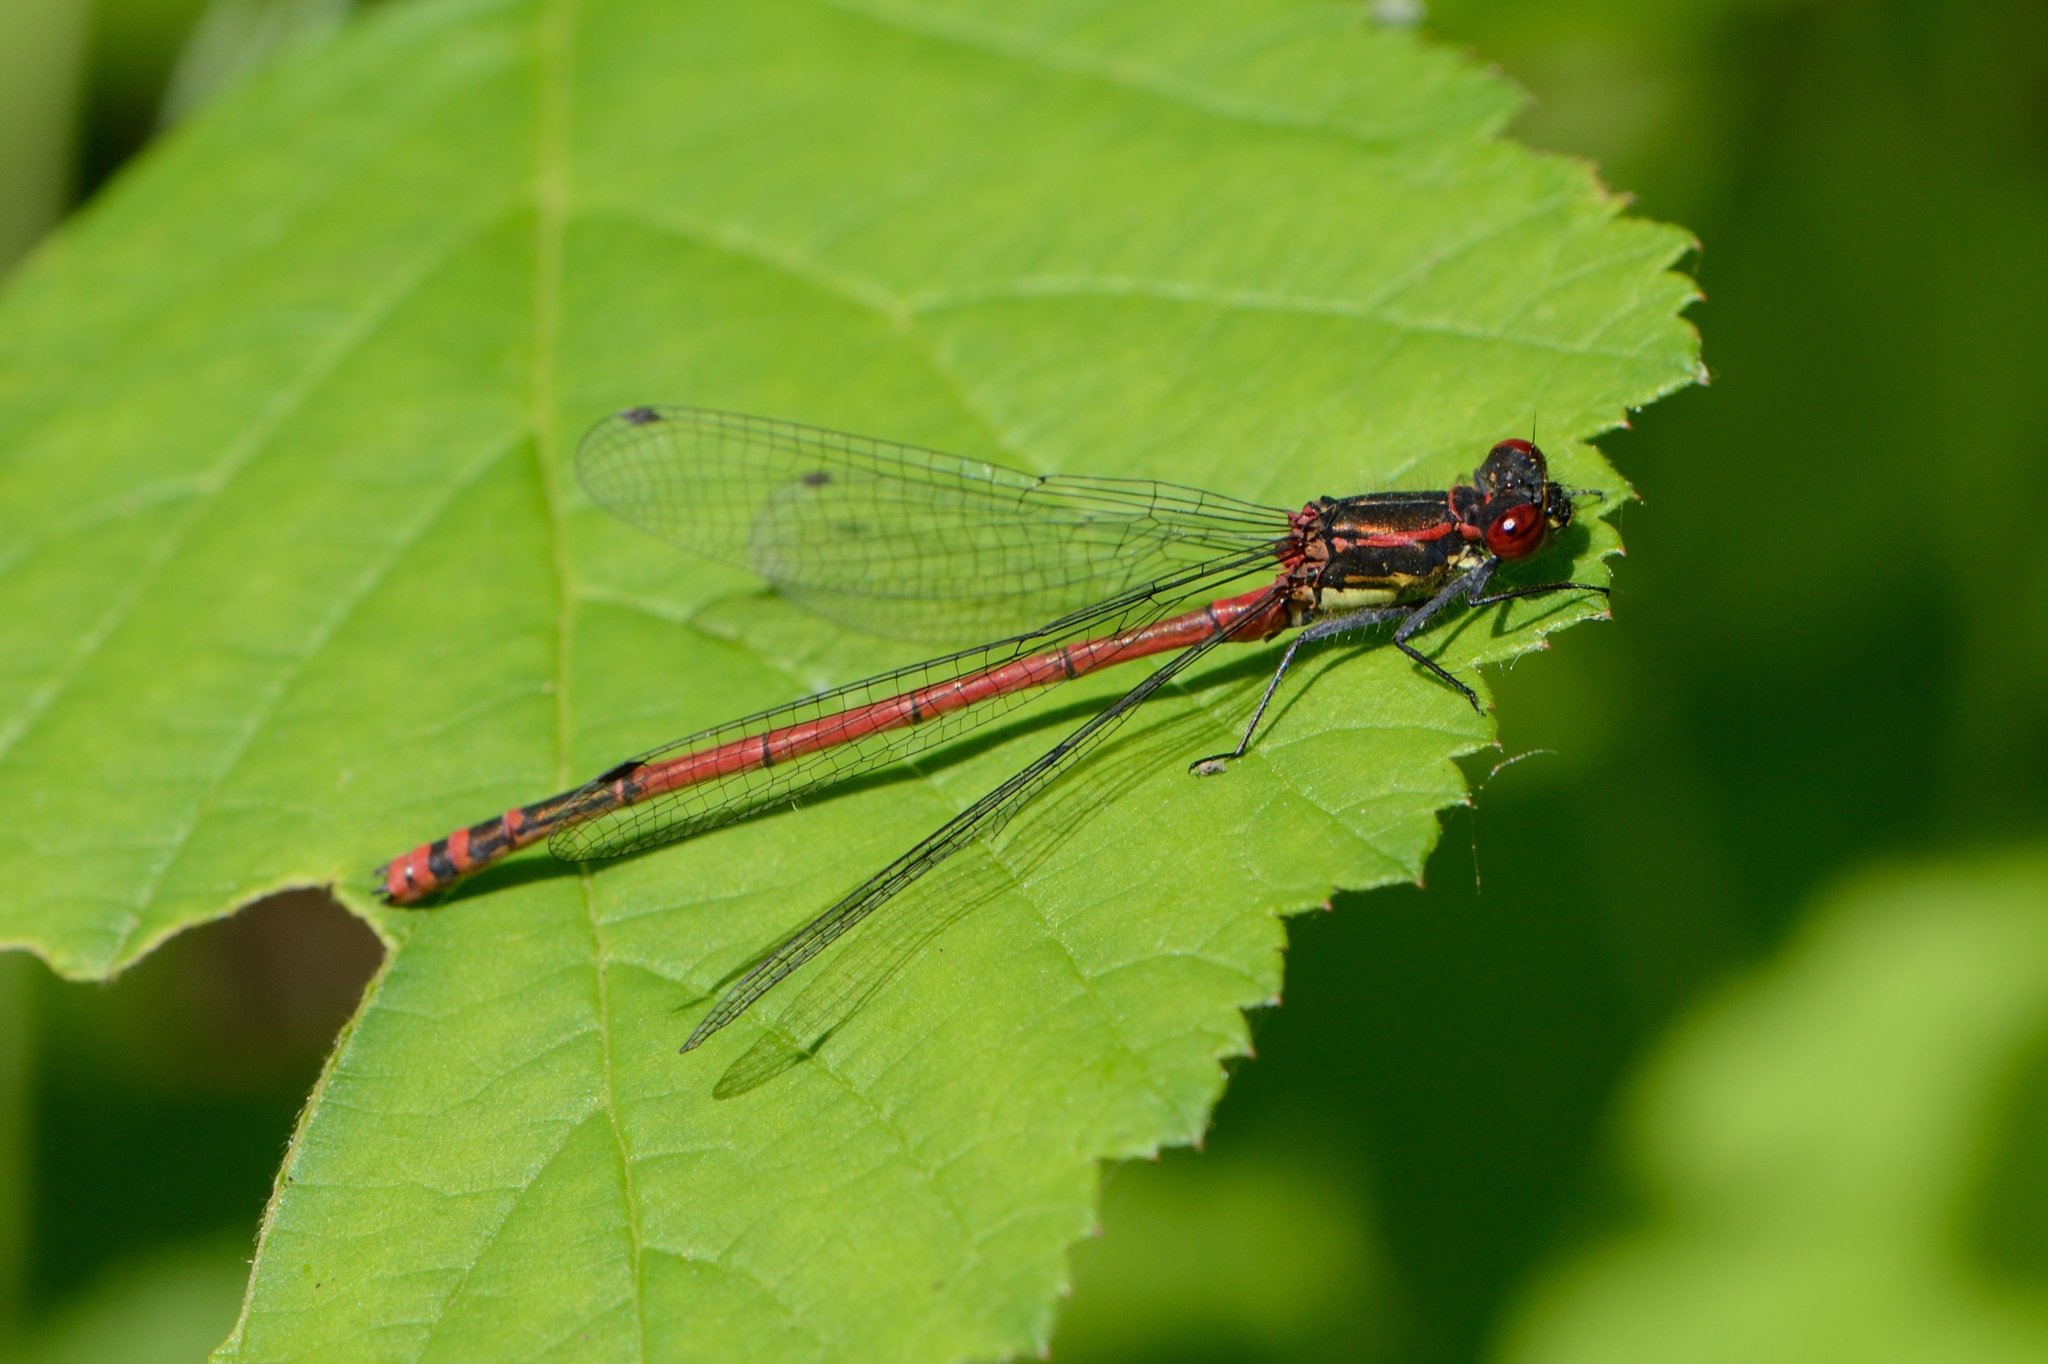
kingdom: Animalia
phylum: Arthropoda
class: Insecta
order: Odonata
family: Coenagrionidae
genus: Pyrrhosoma
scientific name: Pyrrhosoma nymphula
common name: Large red damsel
